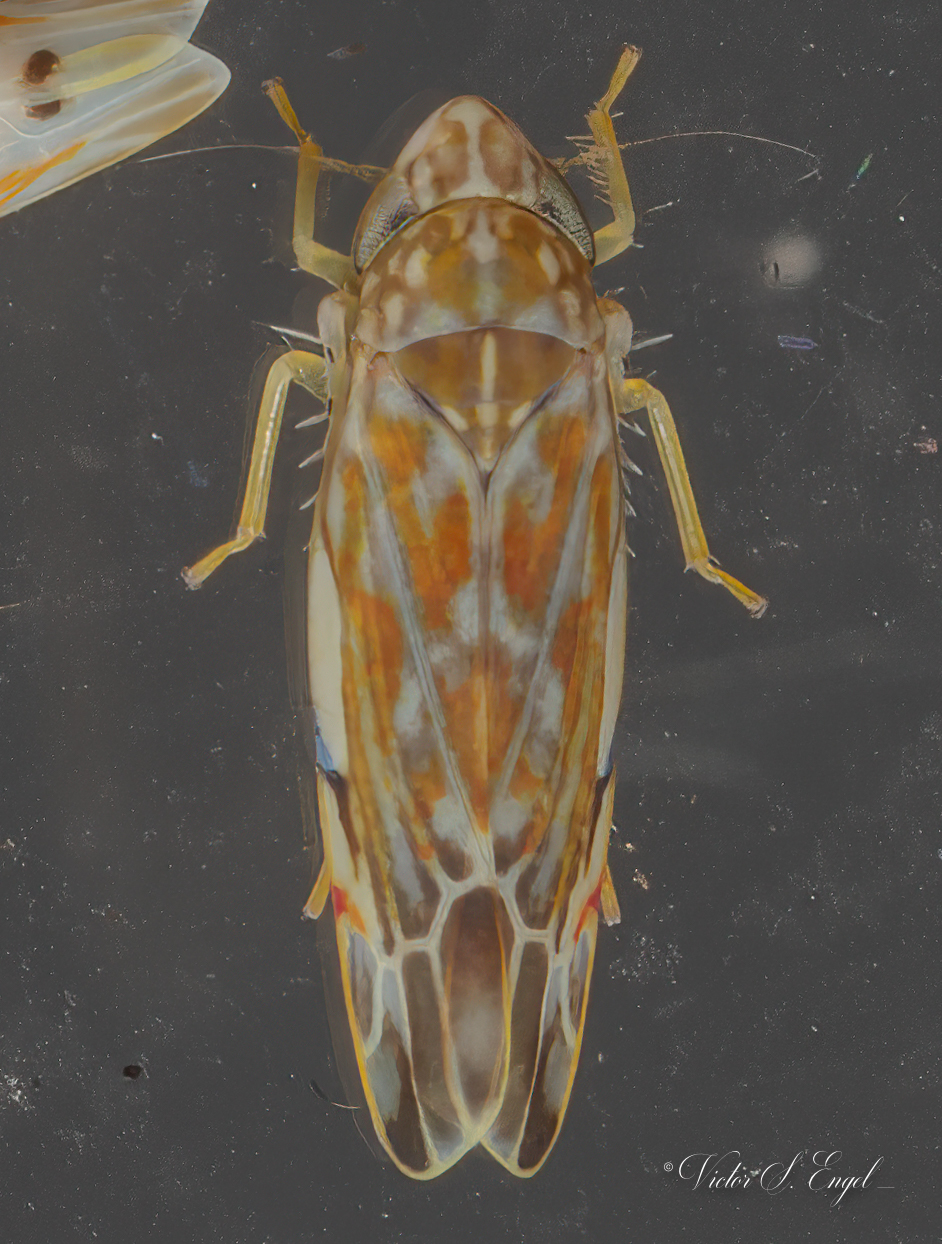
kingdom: Animalia
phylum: Arthropoda
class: Insecta
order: Hemiptera
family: Cicadellidae
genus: Erasmoneura
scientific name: Erasmoneura vulnerata
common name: The wounded leafhopper
